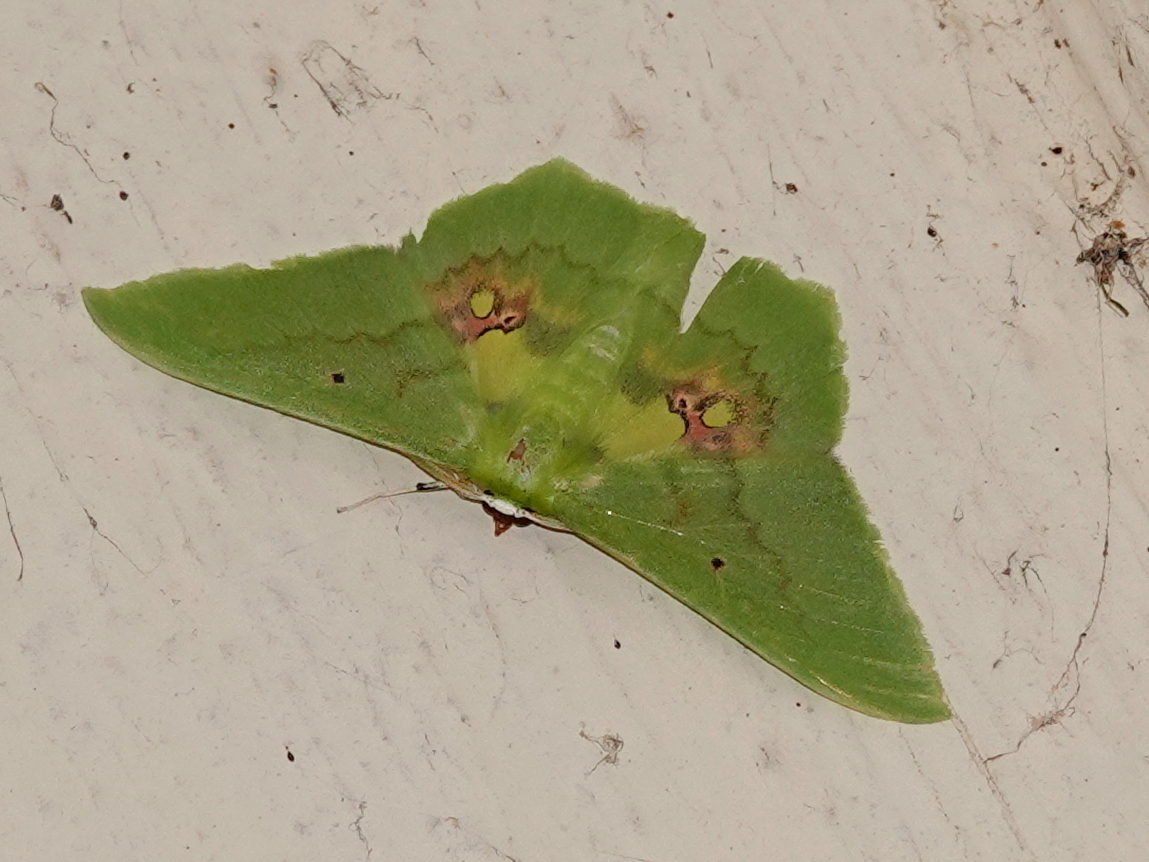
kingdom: Animalia
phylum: Arthropoda
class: Insecta
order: Lepidoptera
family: Geometridae
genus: Aporandria
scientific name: Aporandria specularia
